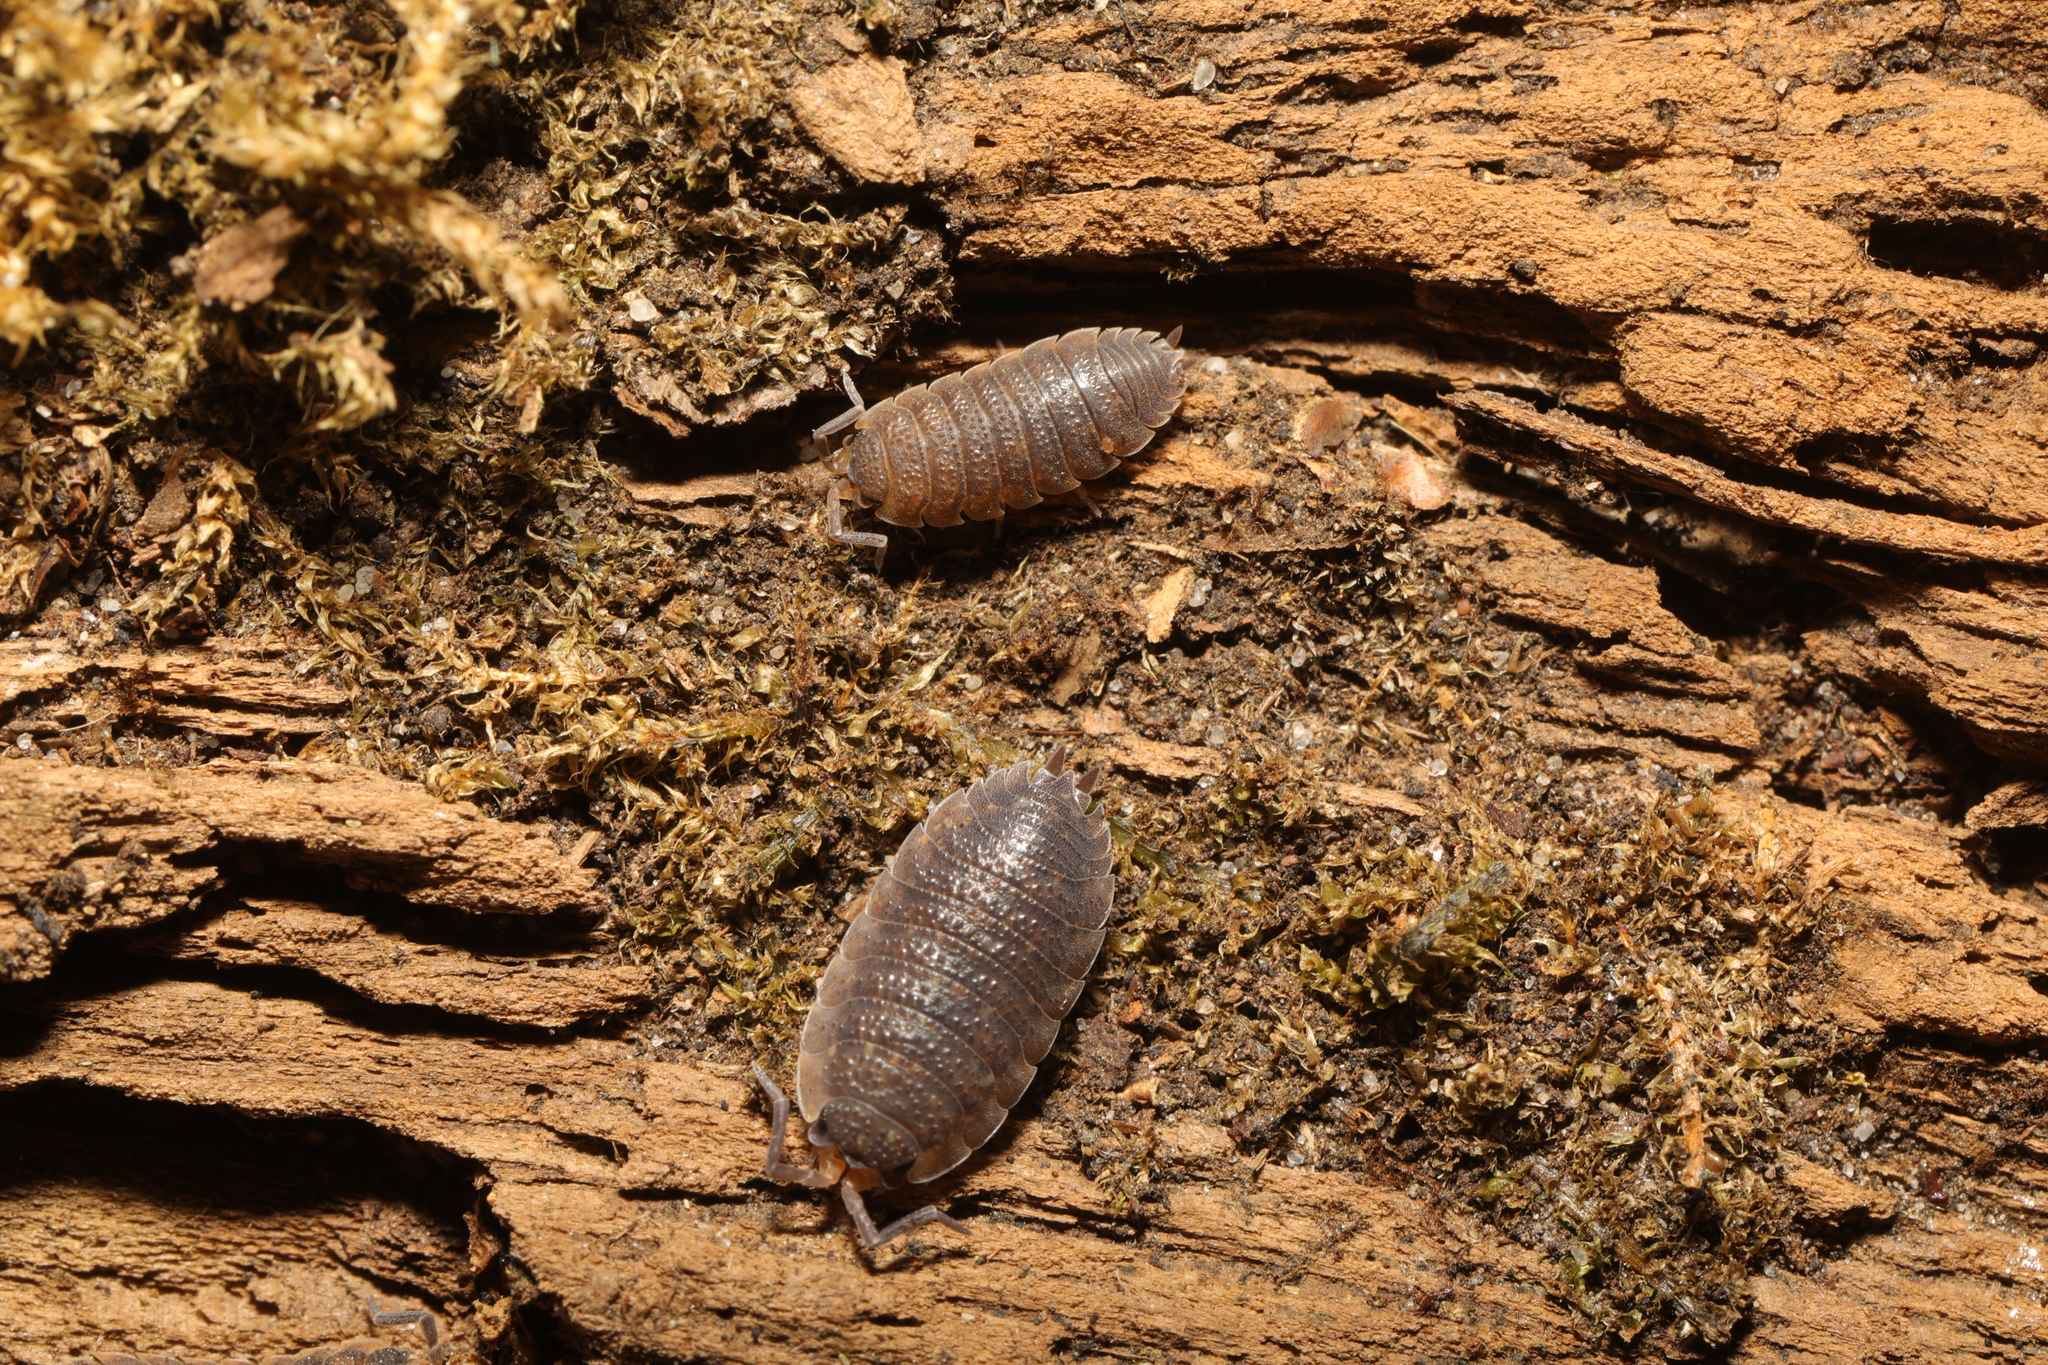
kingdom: Animalia
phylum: Arthropoda
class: Malacostraca
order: Isopoda
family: Porcellionidae
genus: Porcellio
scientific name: Porcellio scaber
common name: Common rough woodlouse
